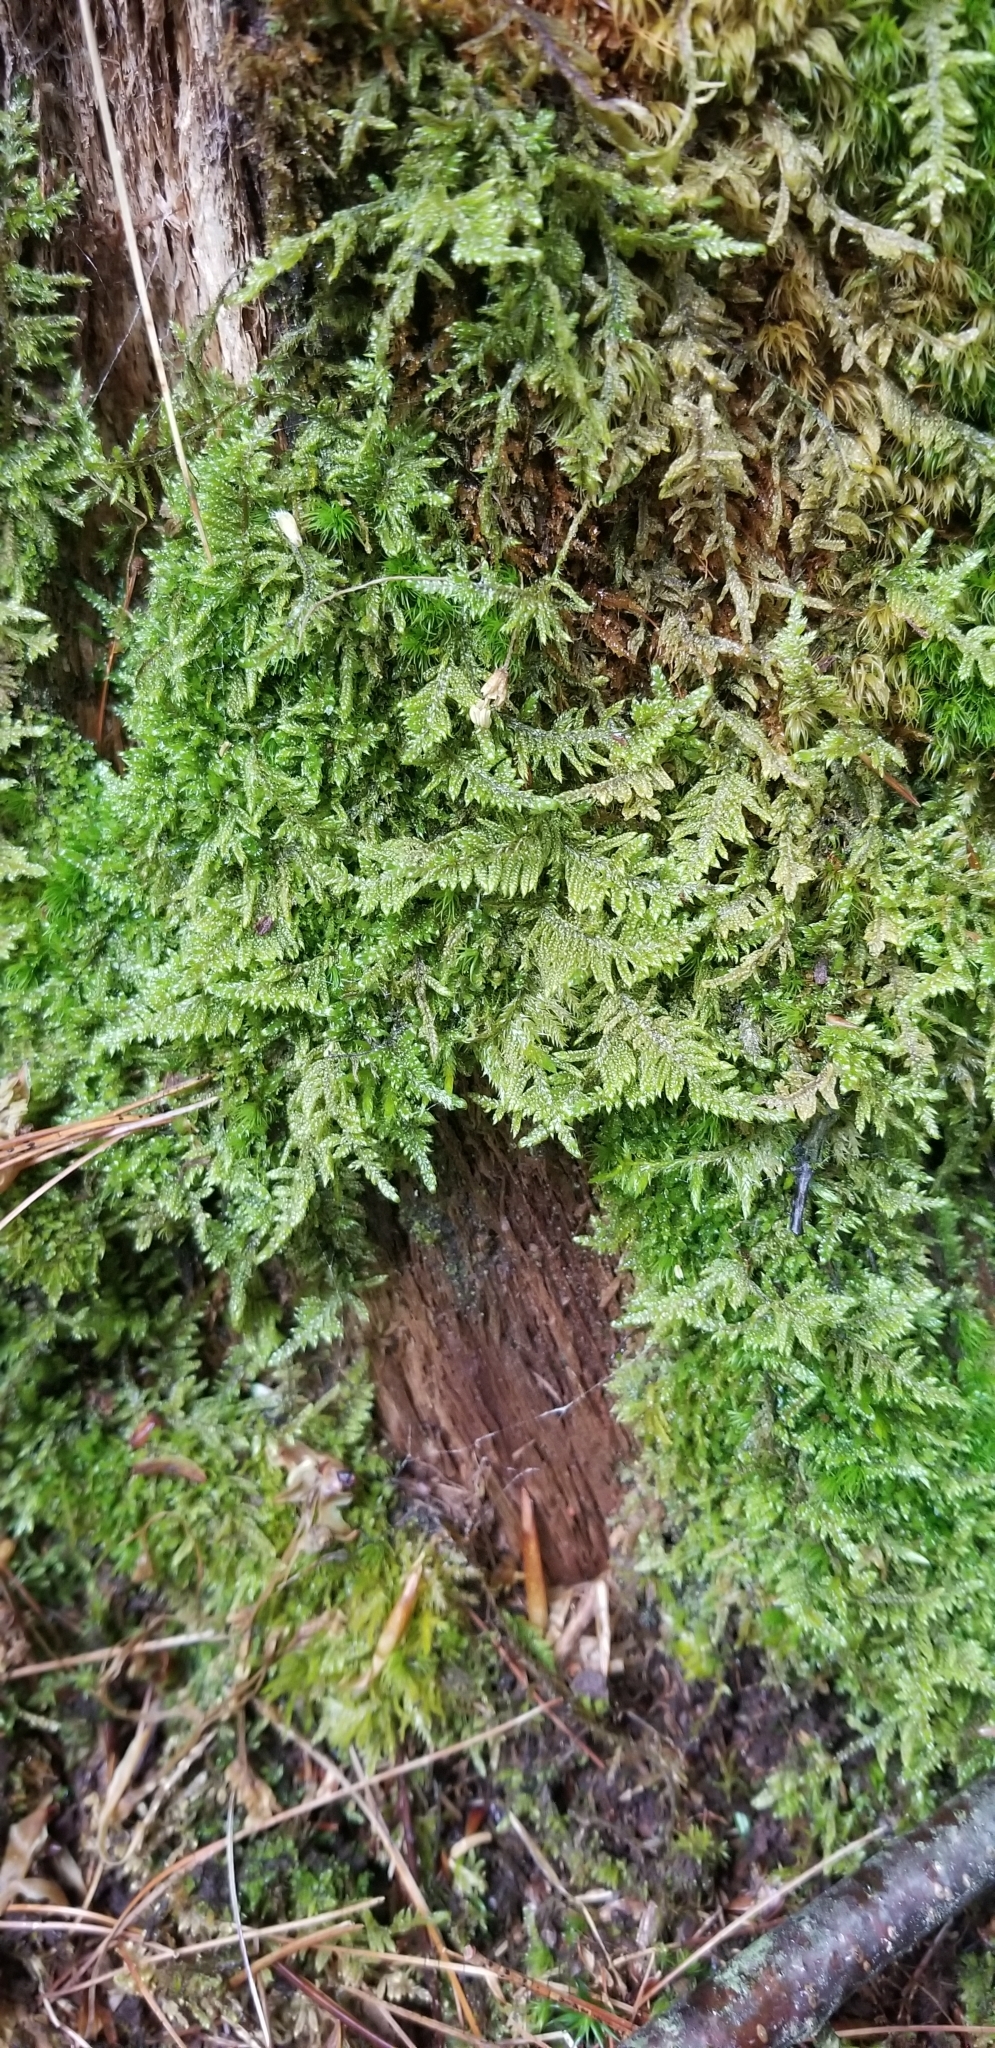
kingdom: Plantae
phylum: Bryophyta
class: Bryopsida
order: Hypnales
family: Callicladiaceae
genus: Callicladium
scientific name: Callicladium imponens
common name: Brocade moss
